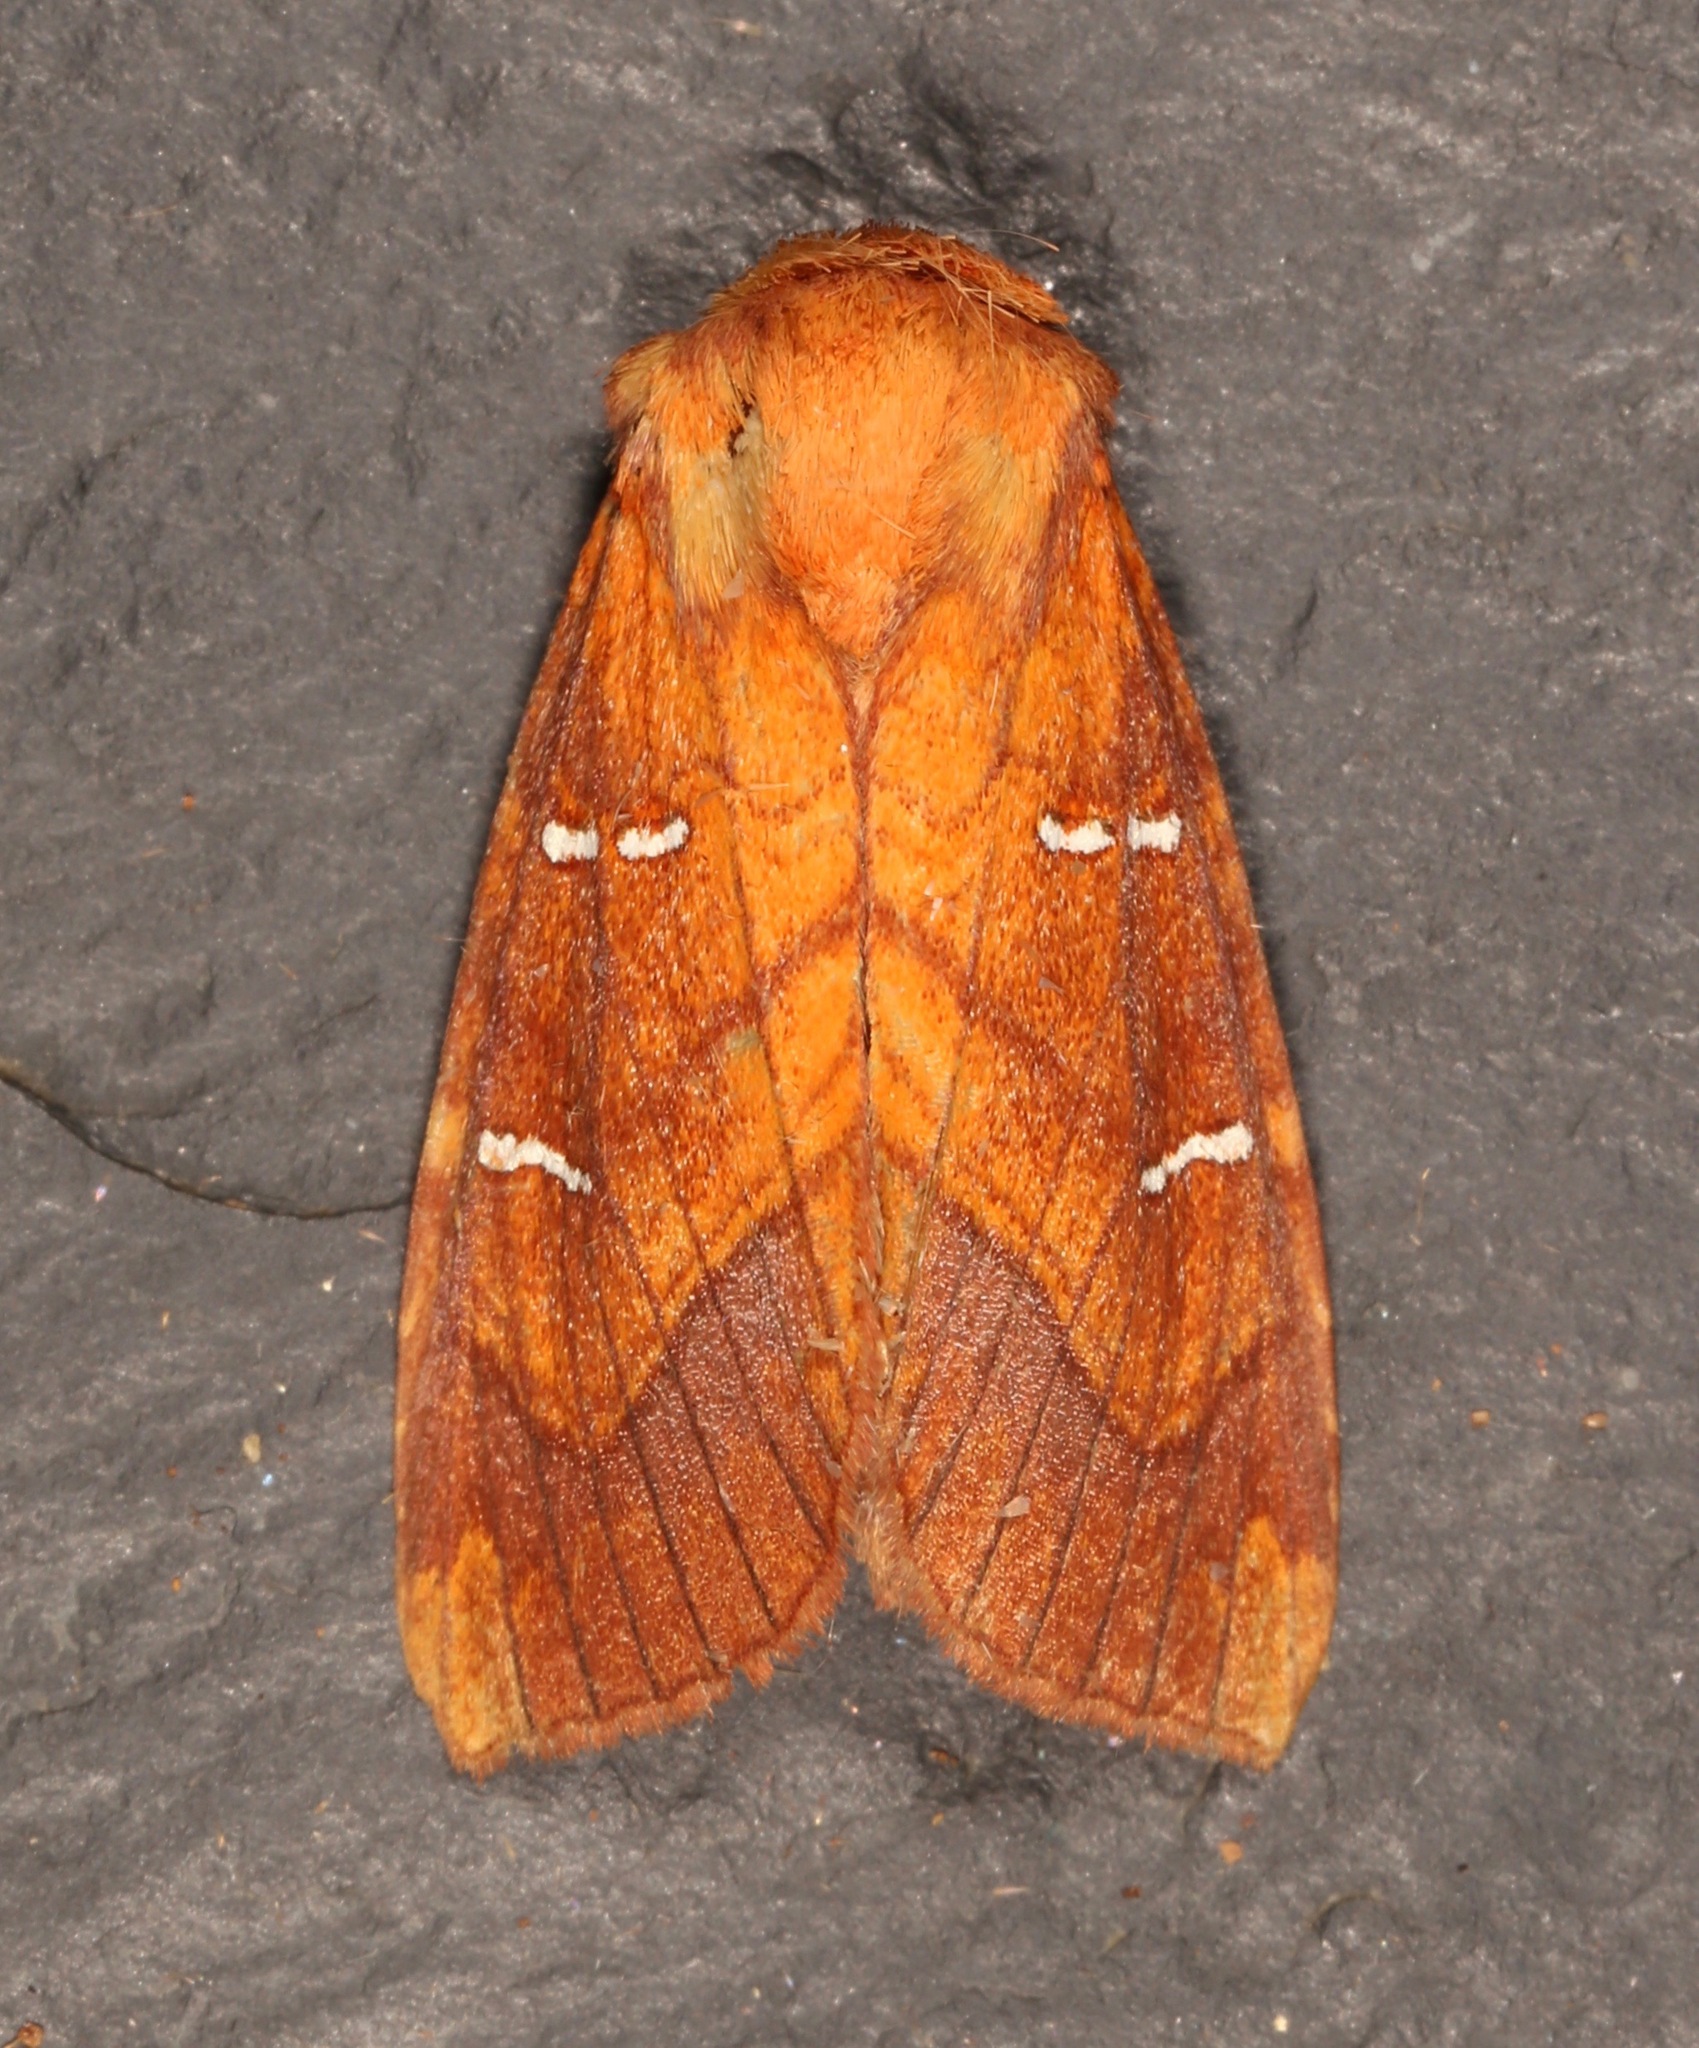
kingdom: Animalia
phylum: Arthropoda
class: Insecta
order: Lepidoptera
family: Noctuidae
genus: Papaipema
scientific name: Papaipema speciosissima
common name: Osmunda borer moth
